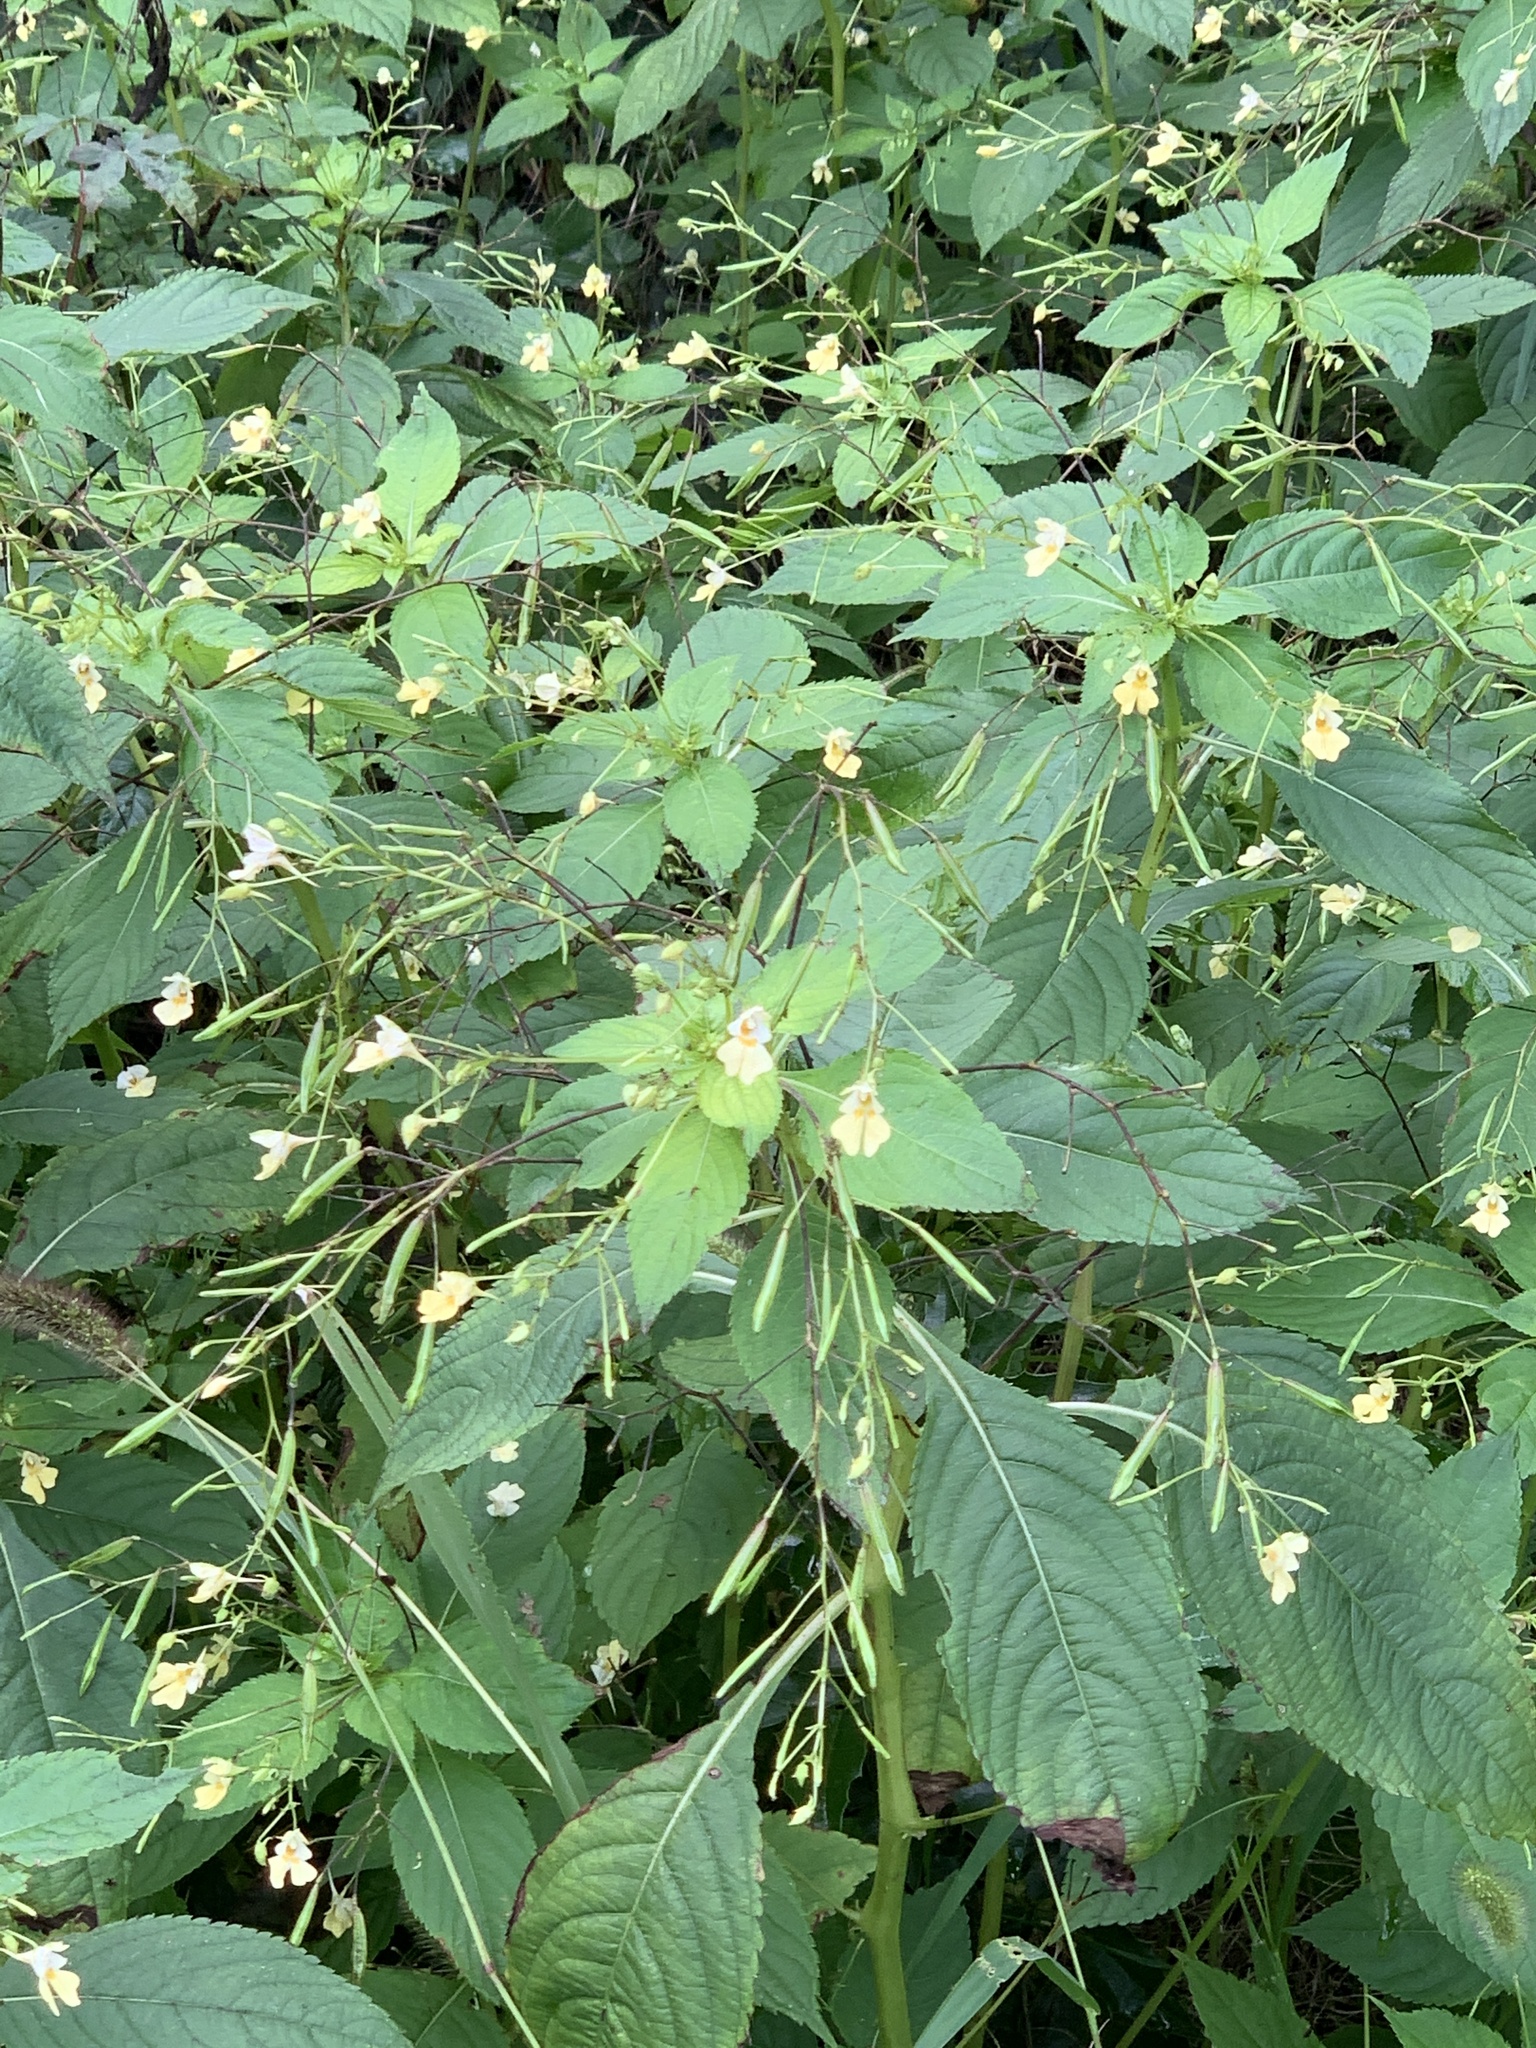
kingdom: Plantae
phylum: Tracheophyta
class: Magnoliopsida
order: Ericales
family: Balsaminaceae
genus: Impatiens
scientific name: Impatiens parviflora
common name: Small balsam
